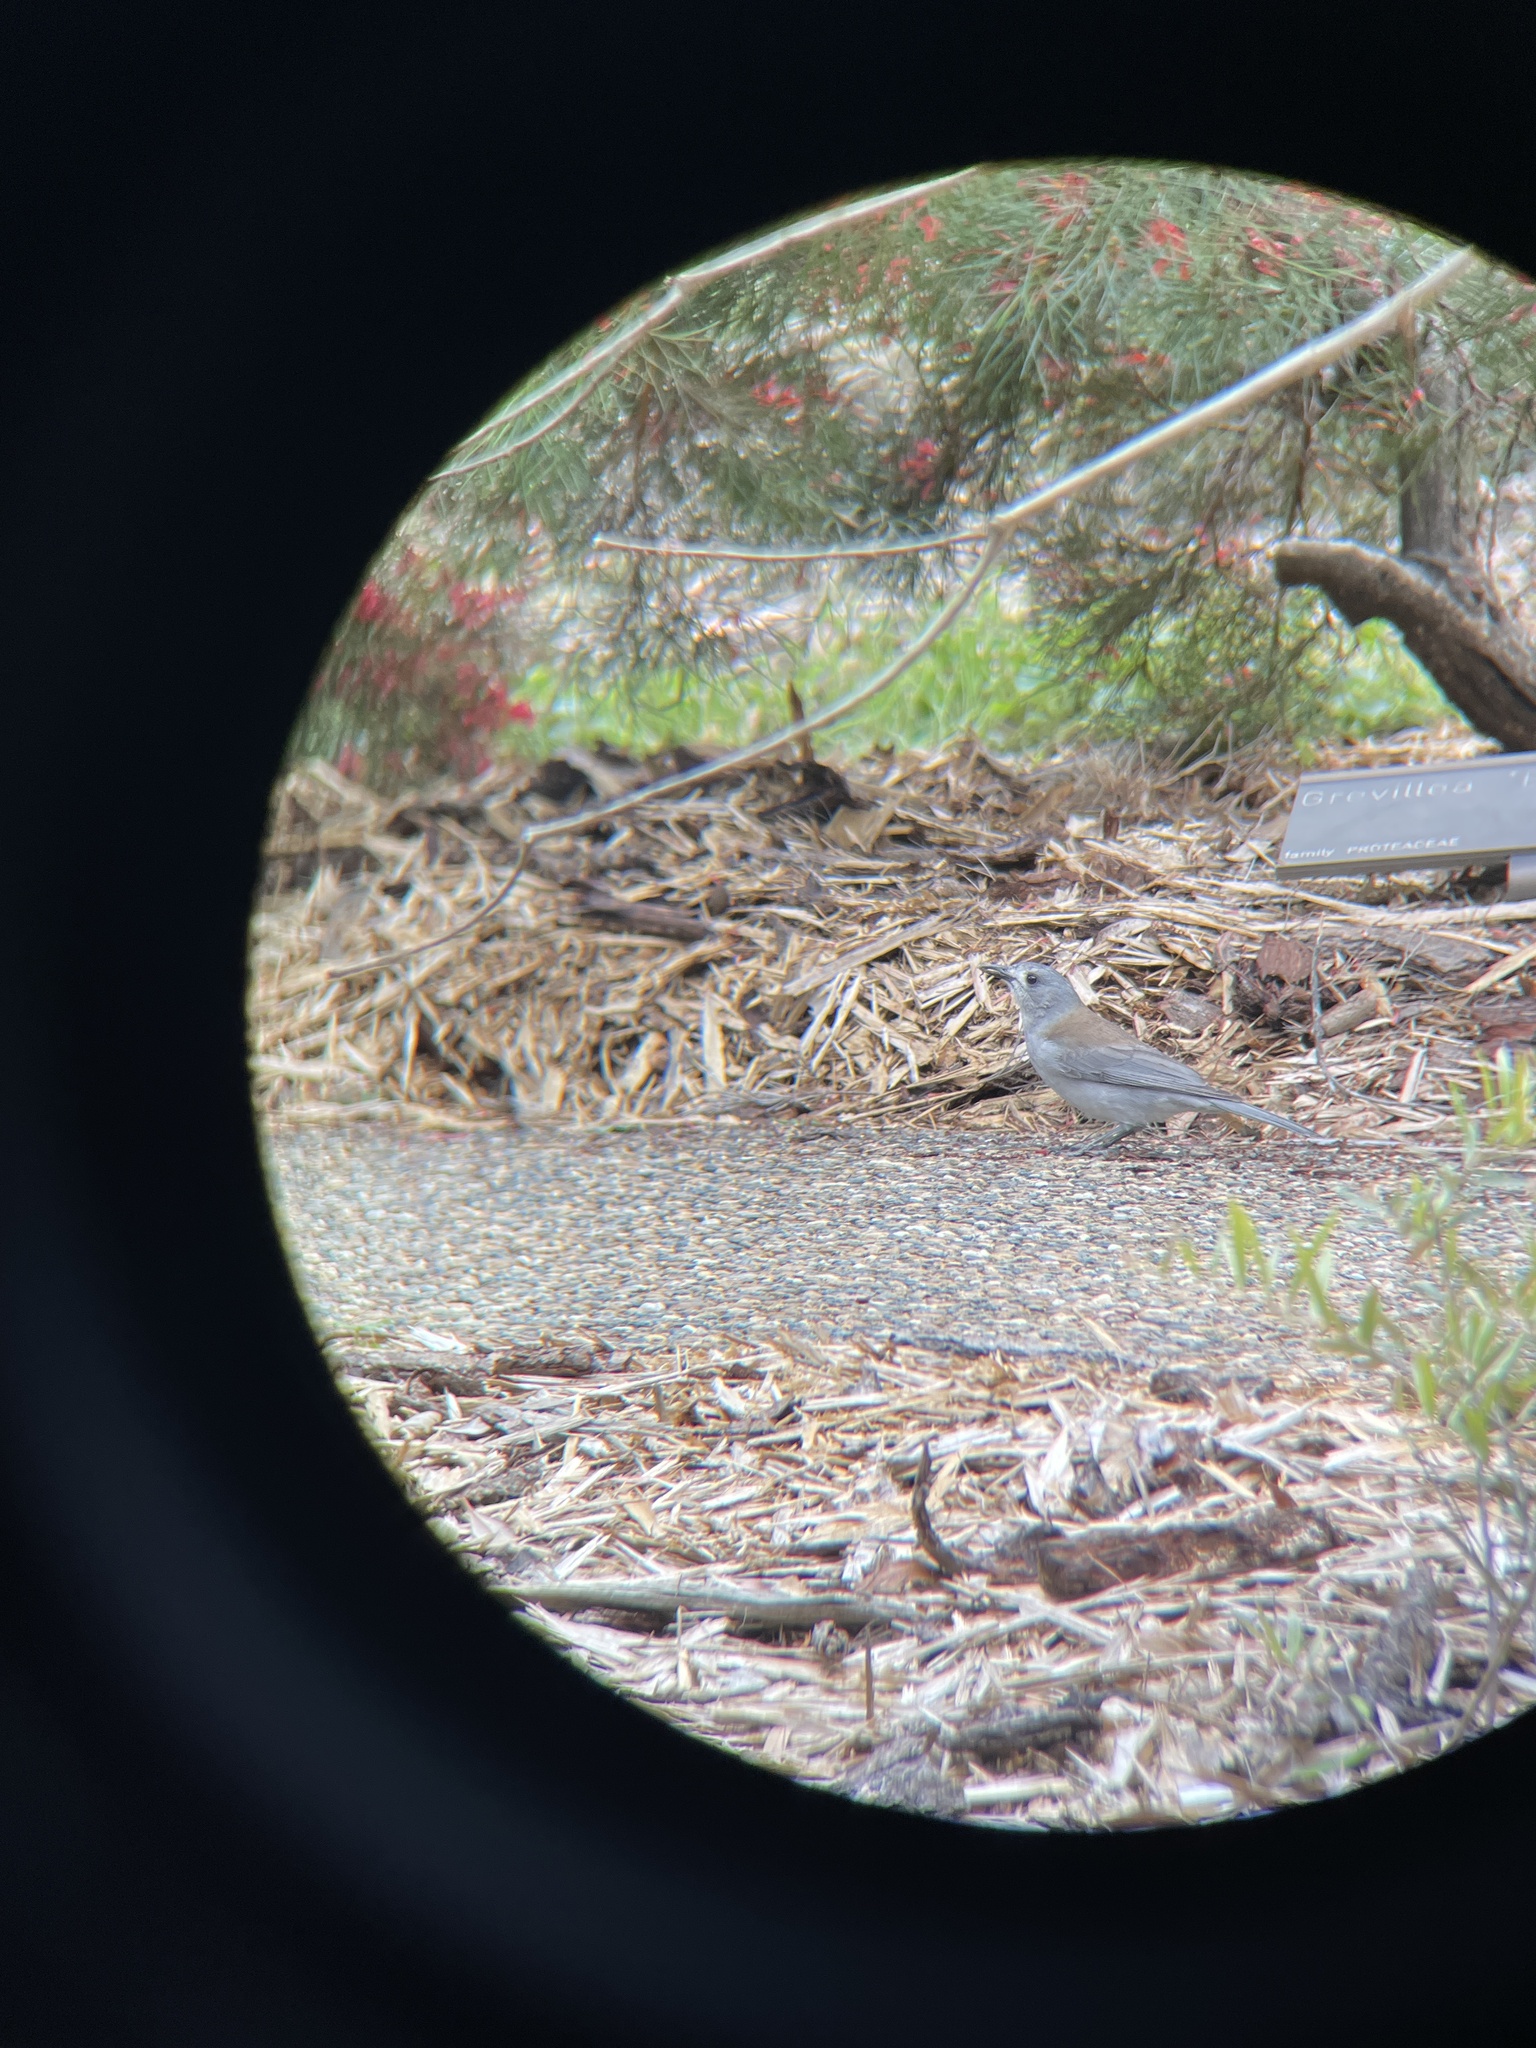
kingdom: Animalia
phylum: Chordata
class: Aves
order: Passeriformes
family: Pachycephalidae
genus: Colluricincla
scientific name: Colluricincla harmonica
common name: Grey shrikethrush
